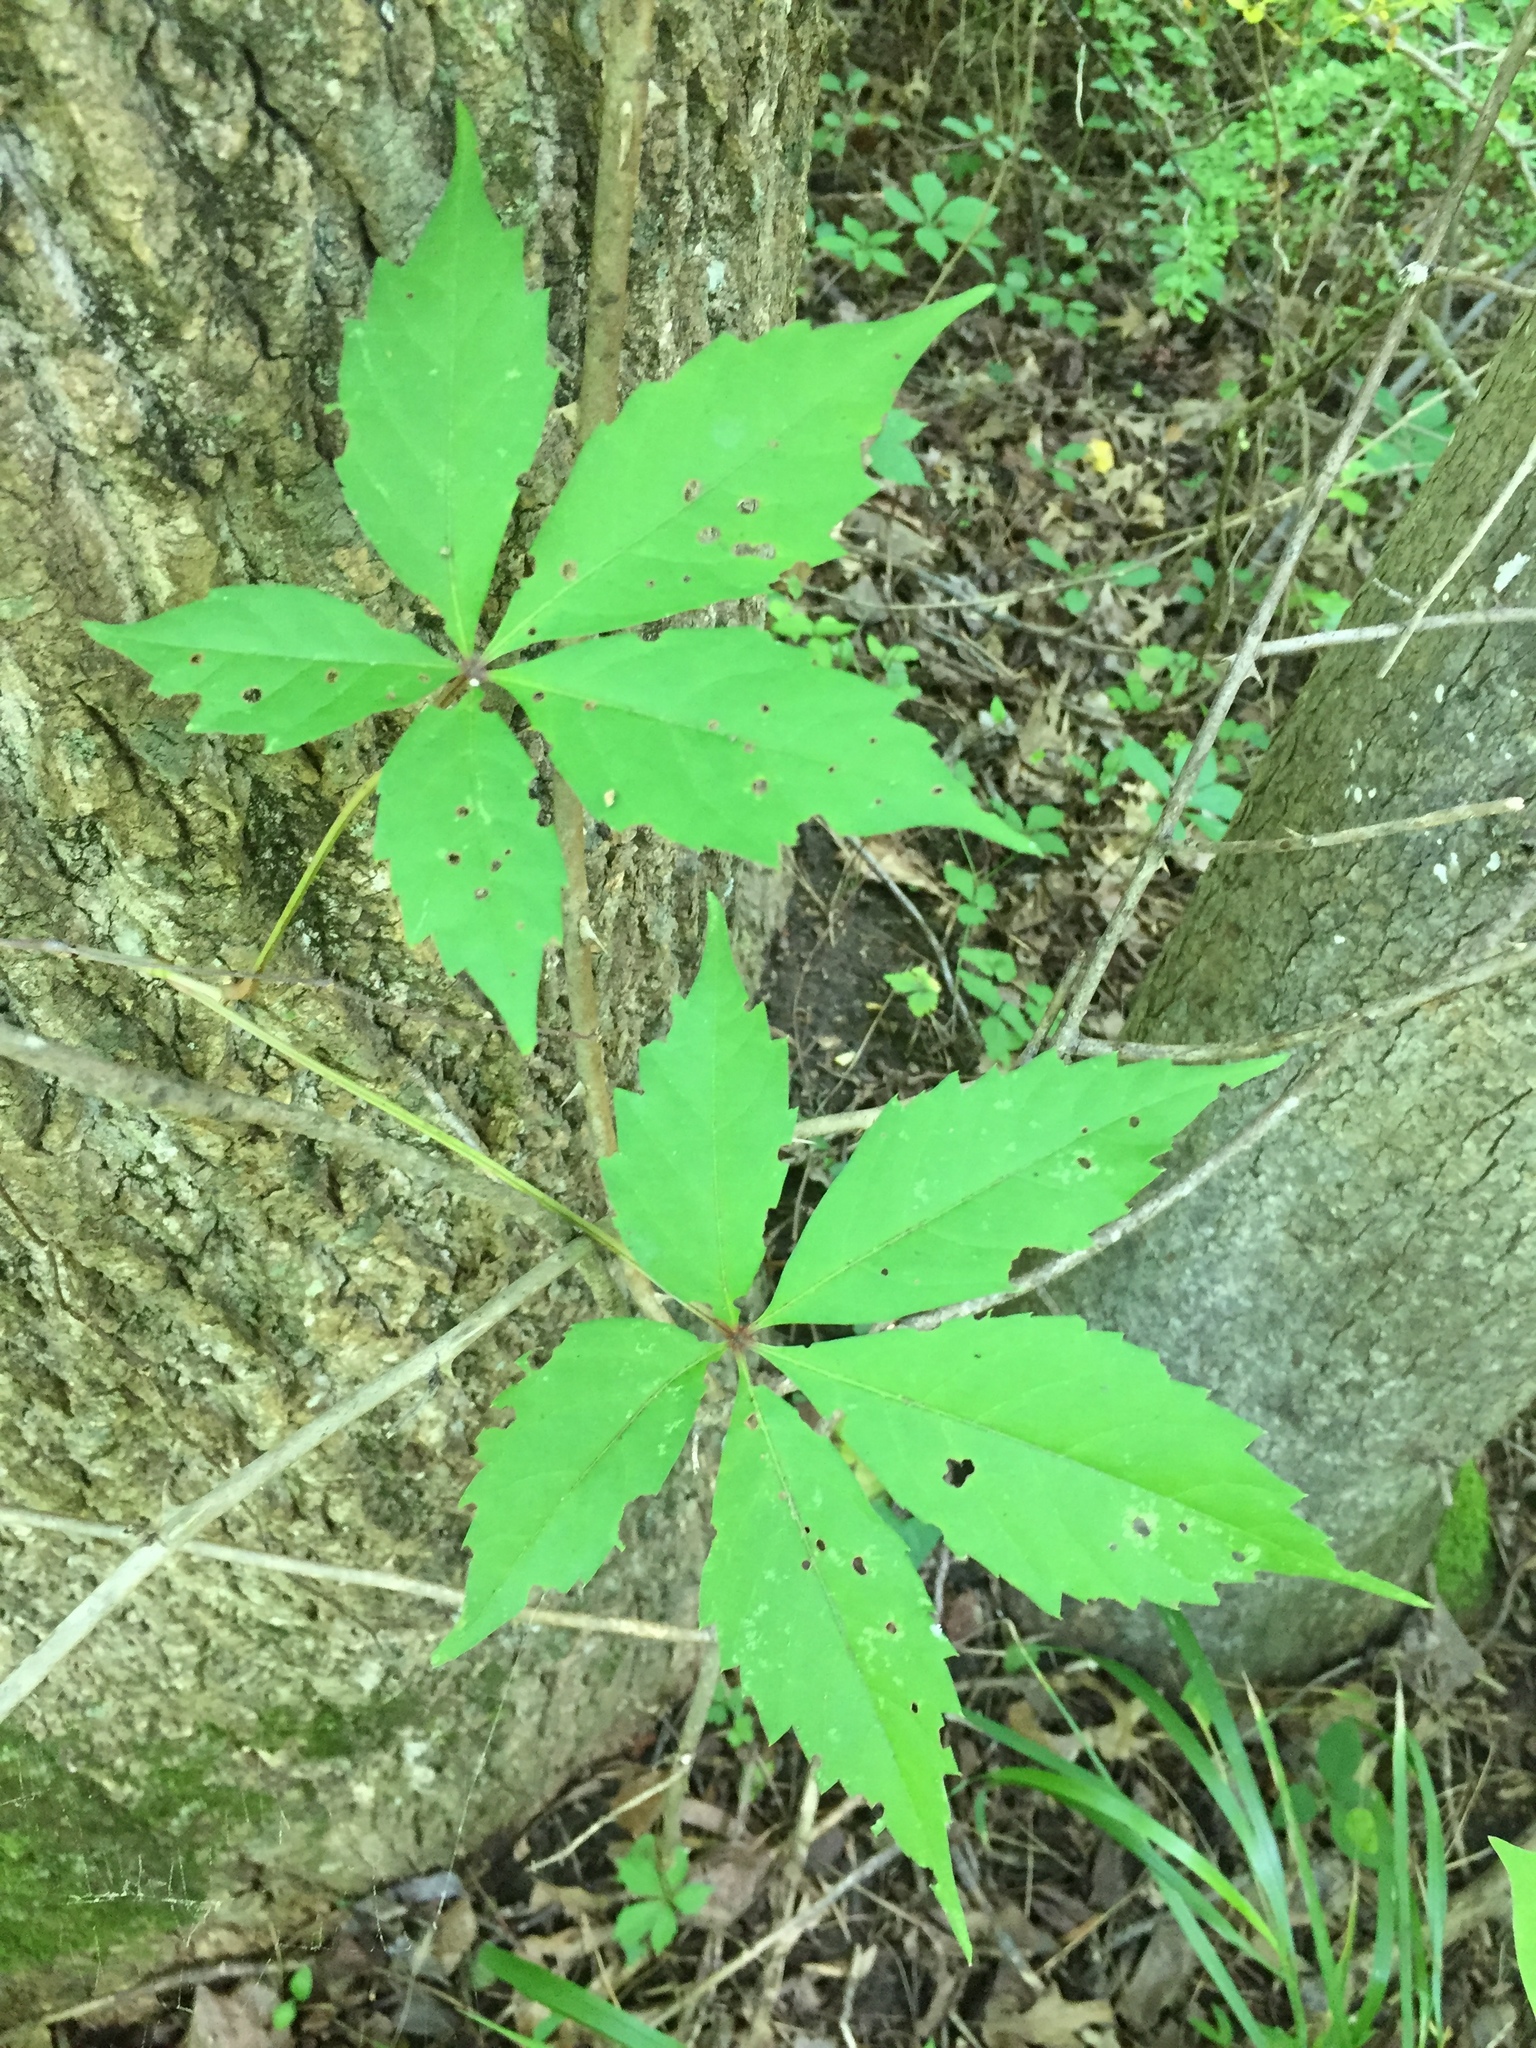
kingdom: Plantae
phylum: Tracheophyta
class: Magnoliopsida
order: Vitales
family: Vitaceae
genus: Parthenocissus
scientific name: Parthenocissus quinquefolia
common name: Virginia-creeper
